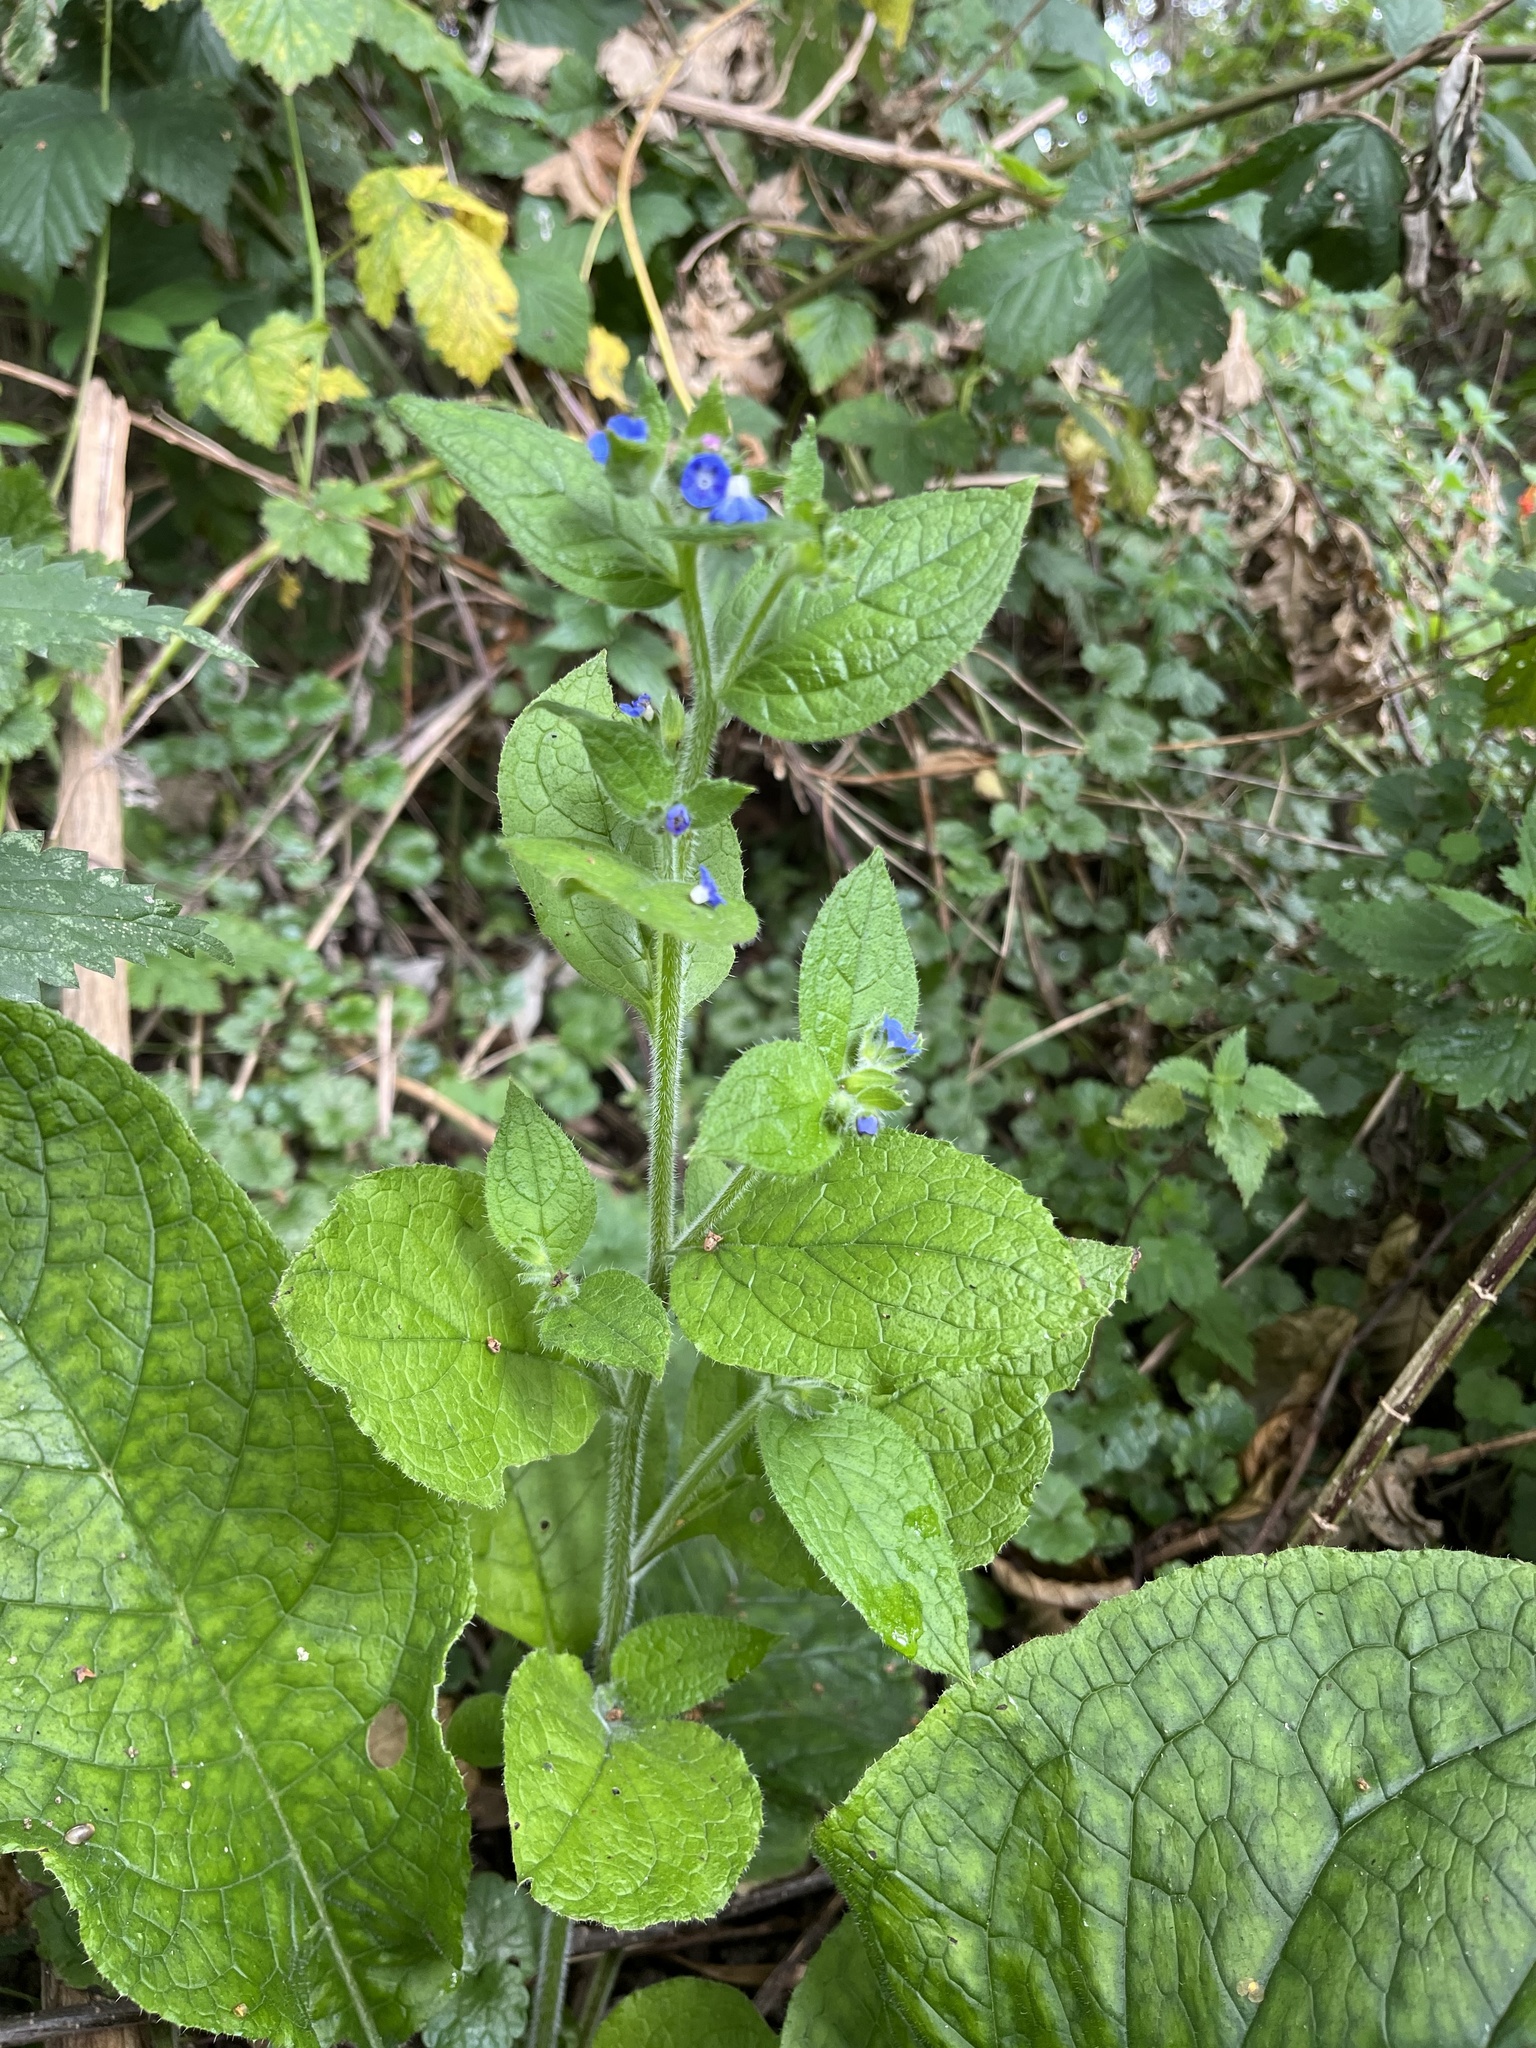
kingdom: Plantae
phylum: Tracheophyta
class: Magnoliopsida
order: Boraginales
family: Boraginaceae
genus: Pentaglottis
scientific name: Pentaglottis sempervirens
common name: Green alkanet
